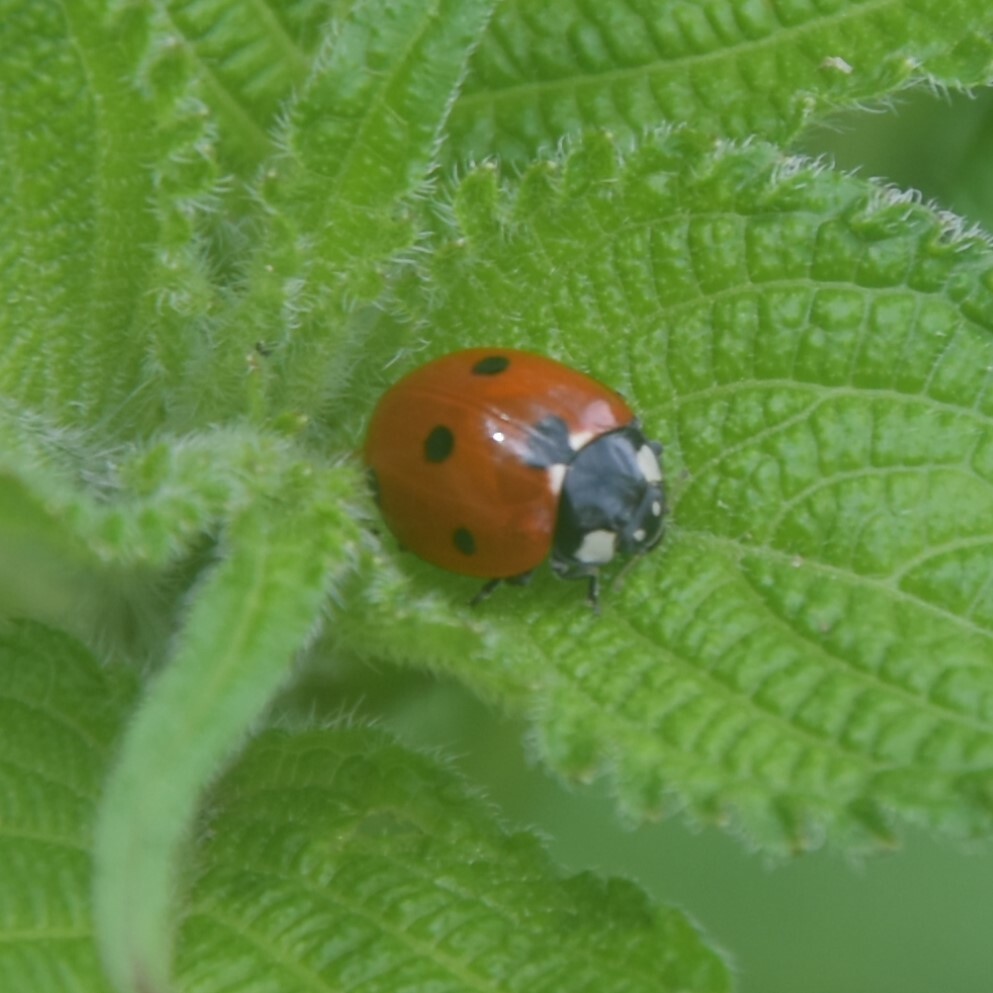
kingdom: Animalia
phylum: Arthropoda
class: Insecta
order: Coleoptera
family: Coccinellidae
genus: Coccinella
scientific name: Coccinella septempunctata
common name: Sevenspotted lady beetle
